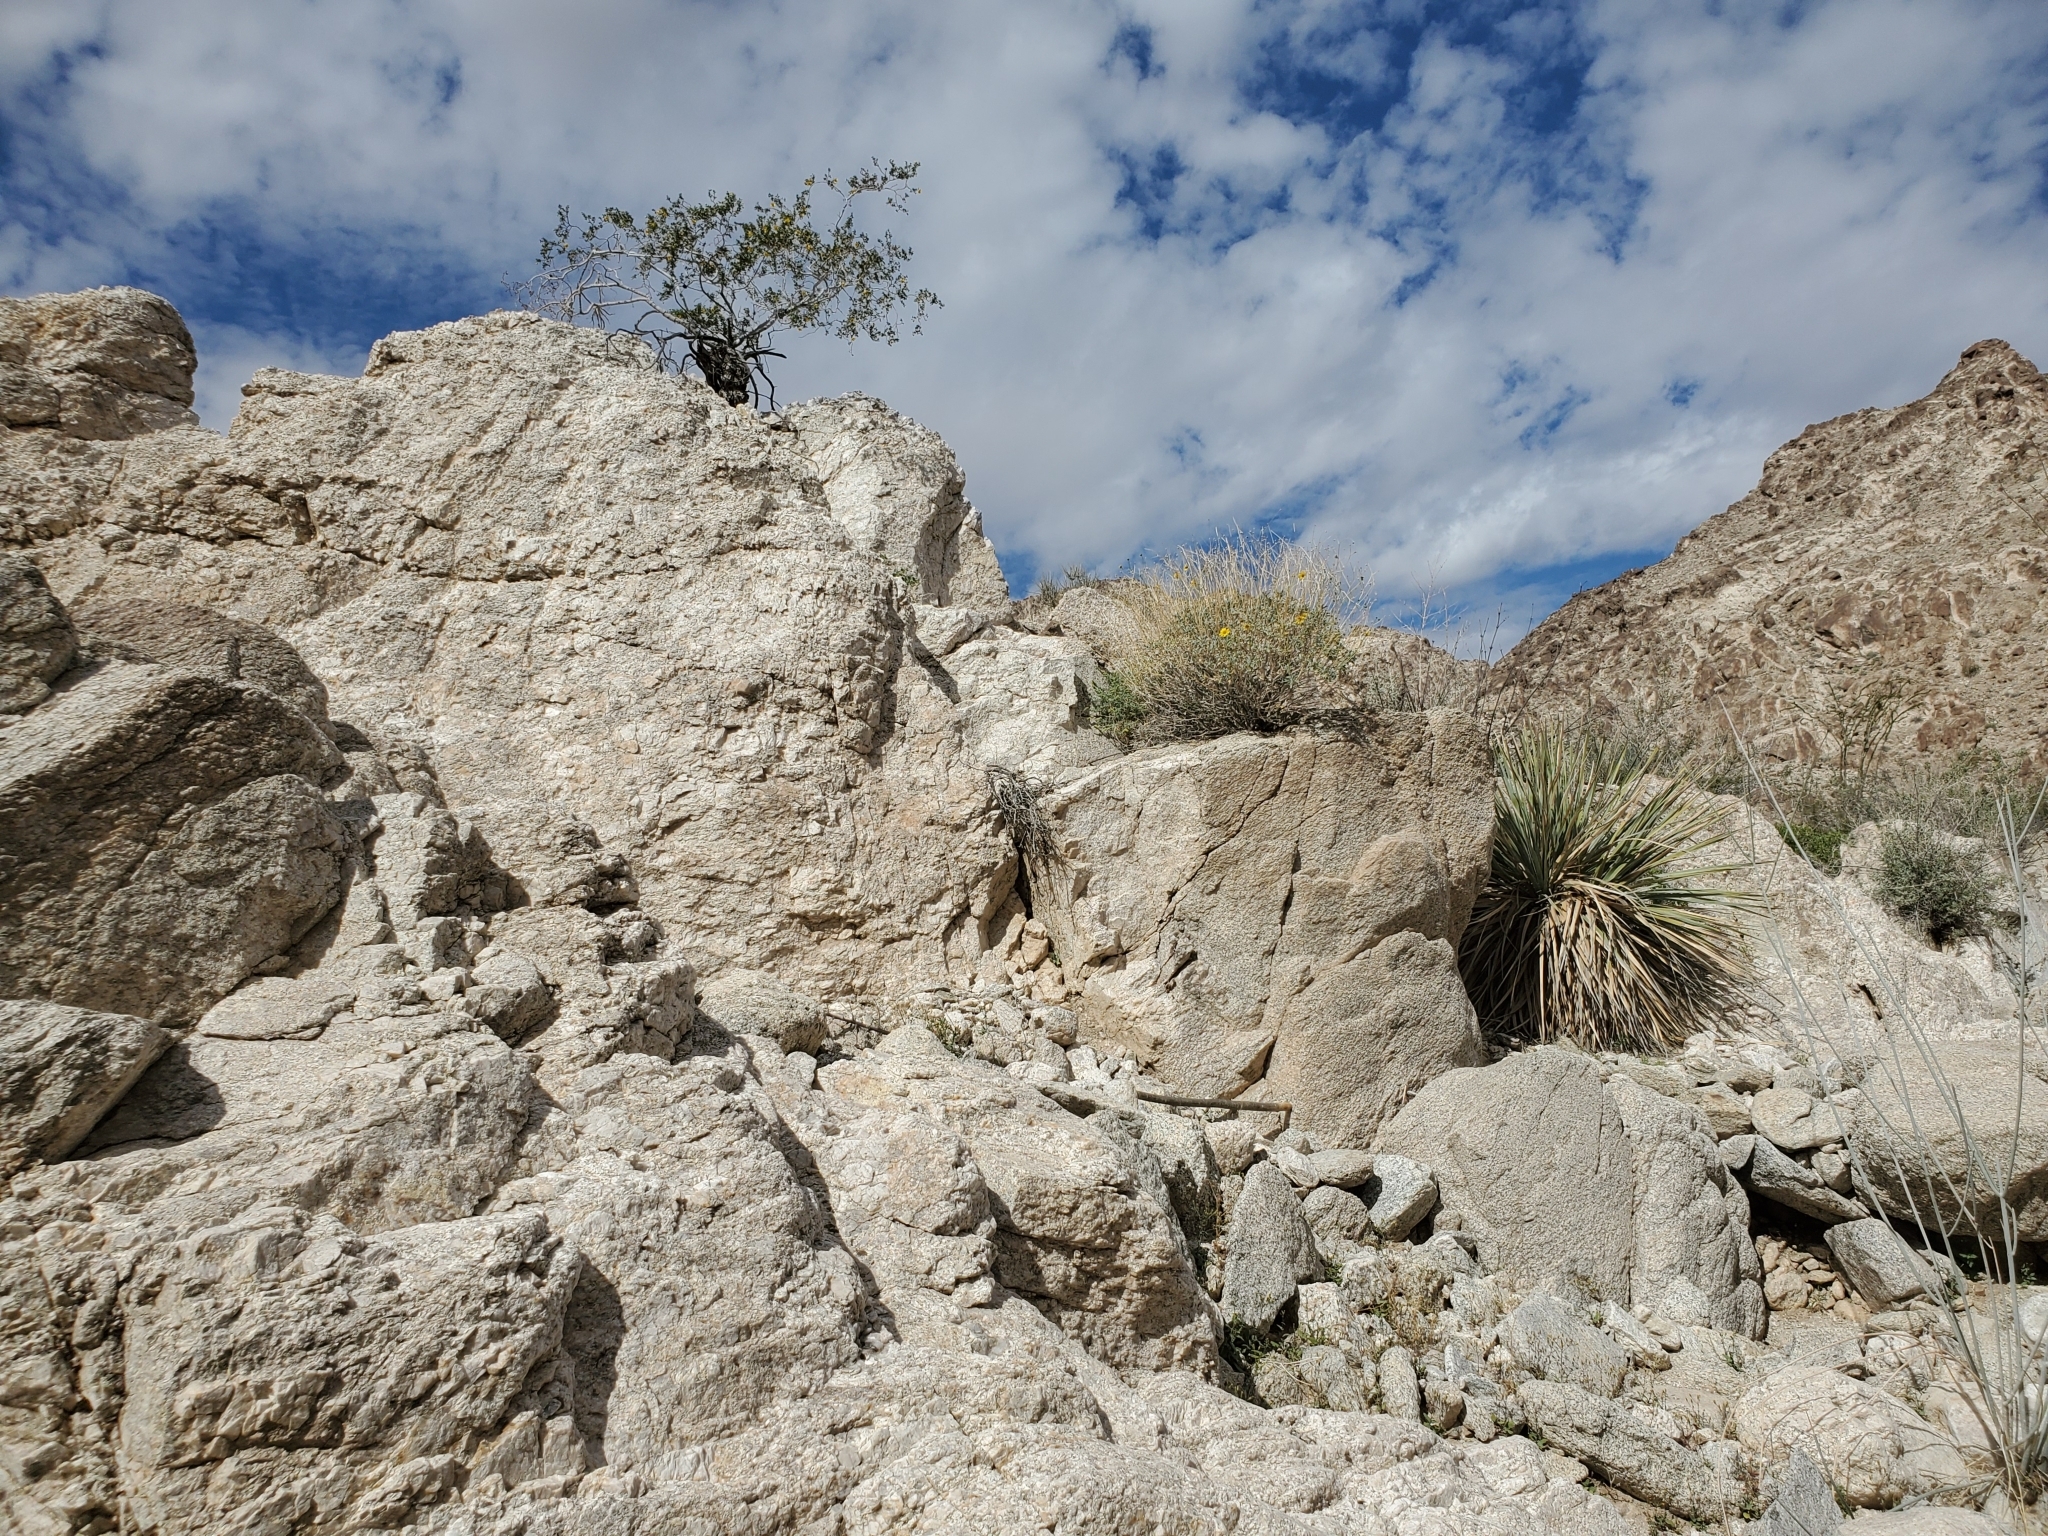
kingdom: Plantae
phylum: Tracheophyta
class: Magnoliopsida
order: Asterales
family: Asteraceae
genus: Encelia
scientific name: Encelia farinosa
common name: Brittlebush
